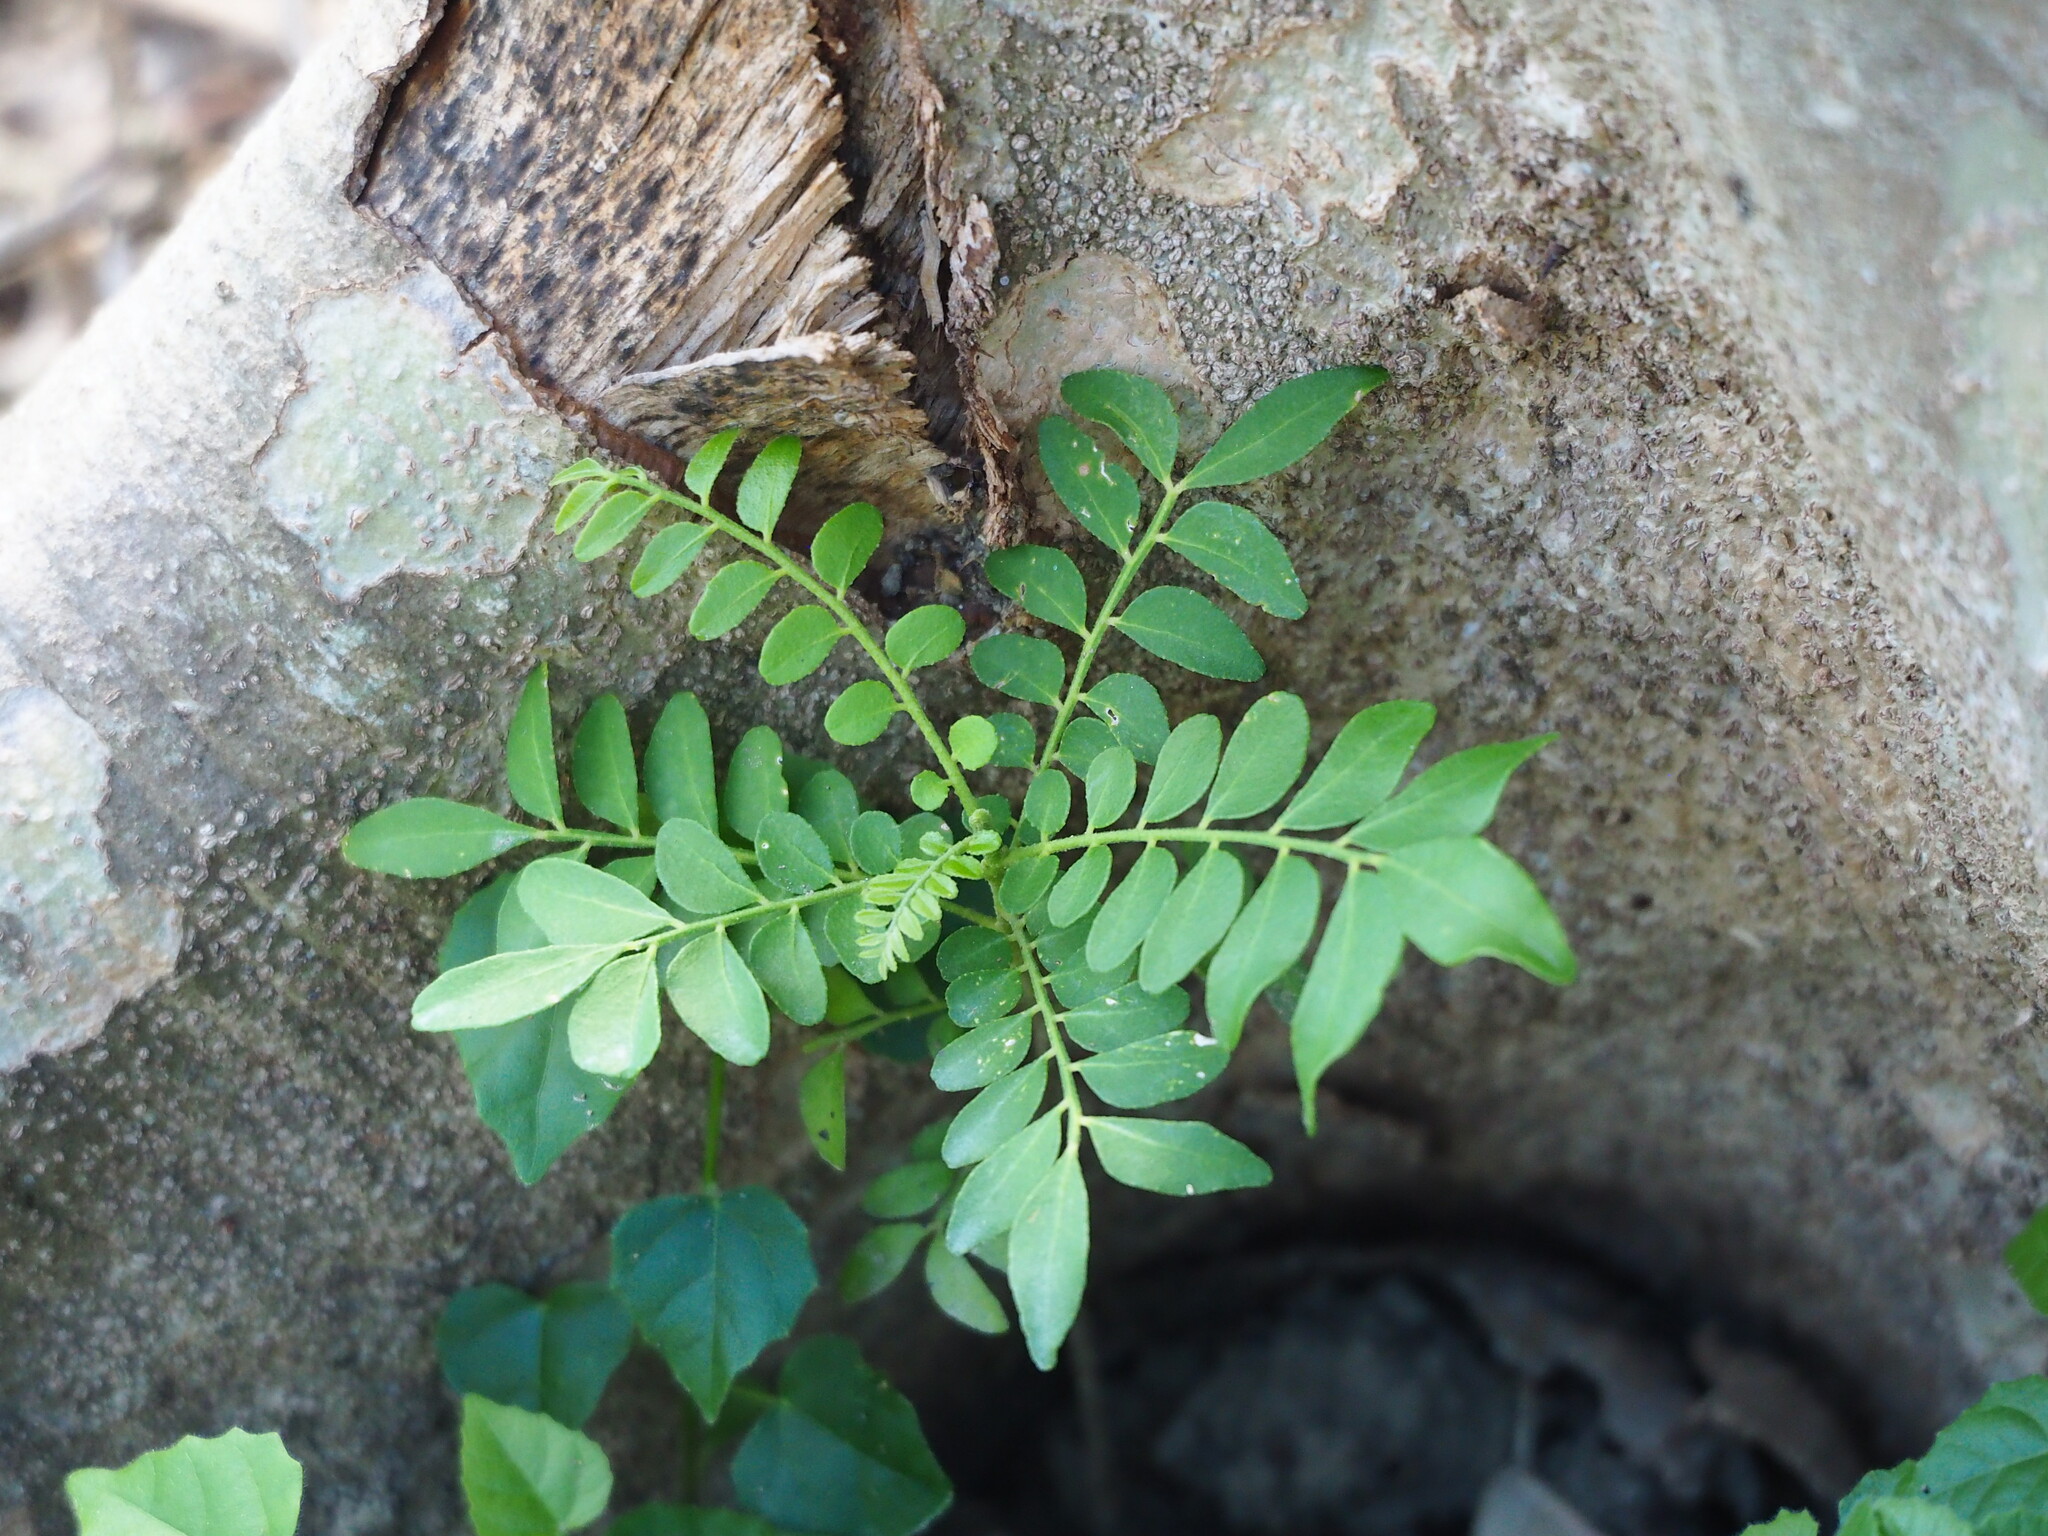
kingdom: Plantae
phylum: Tracheophyta
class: Magnoliopsida
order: Sapindales
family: Rutaceae
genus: Clausena
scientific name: Clausena excavata
